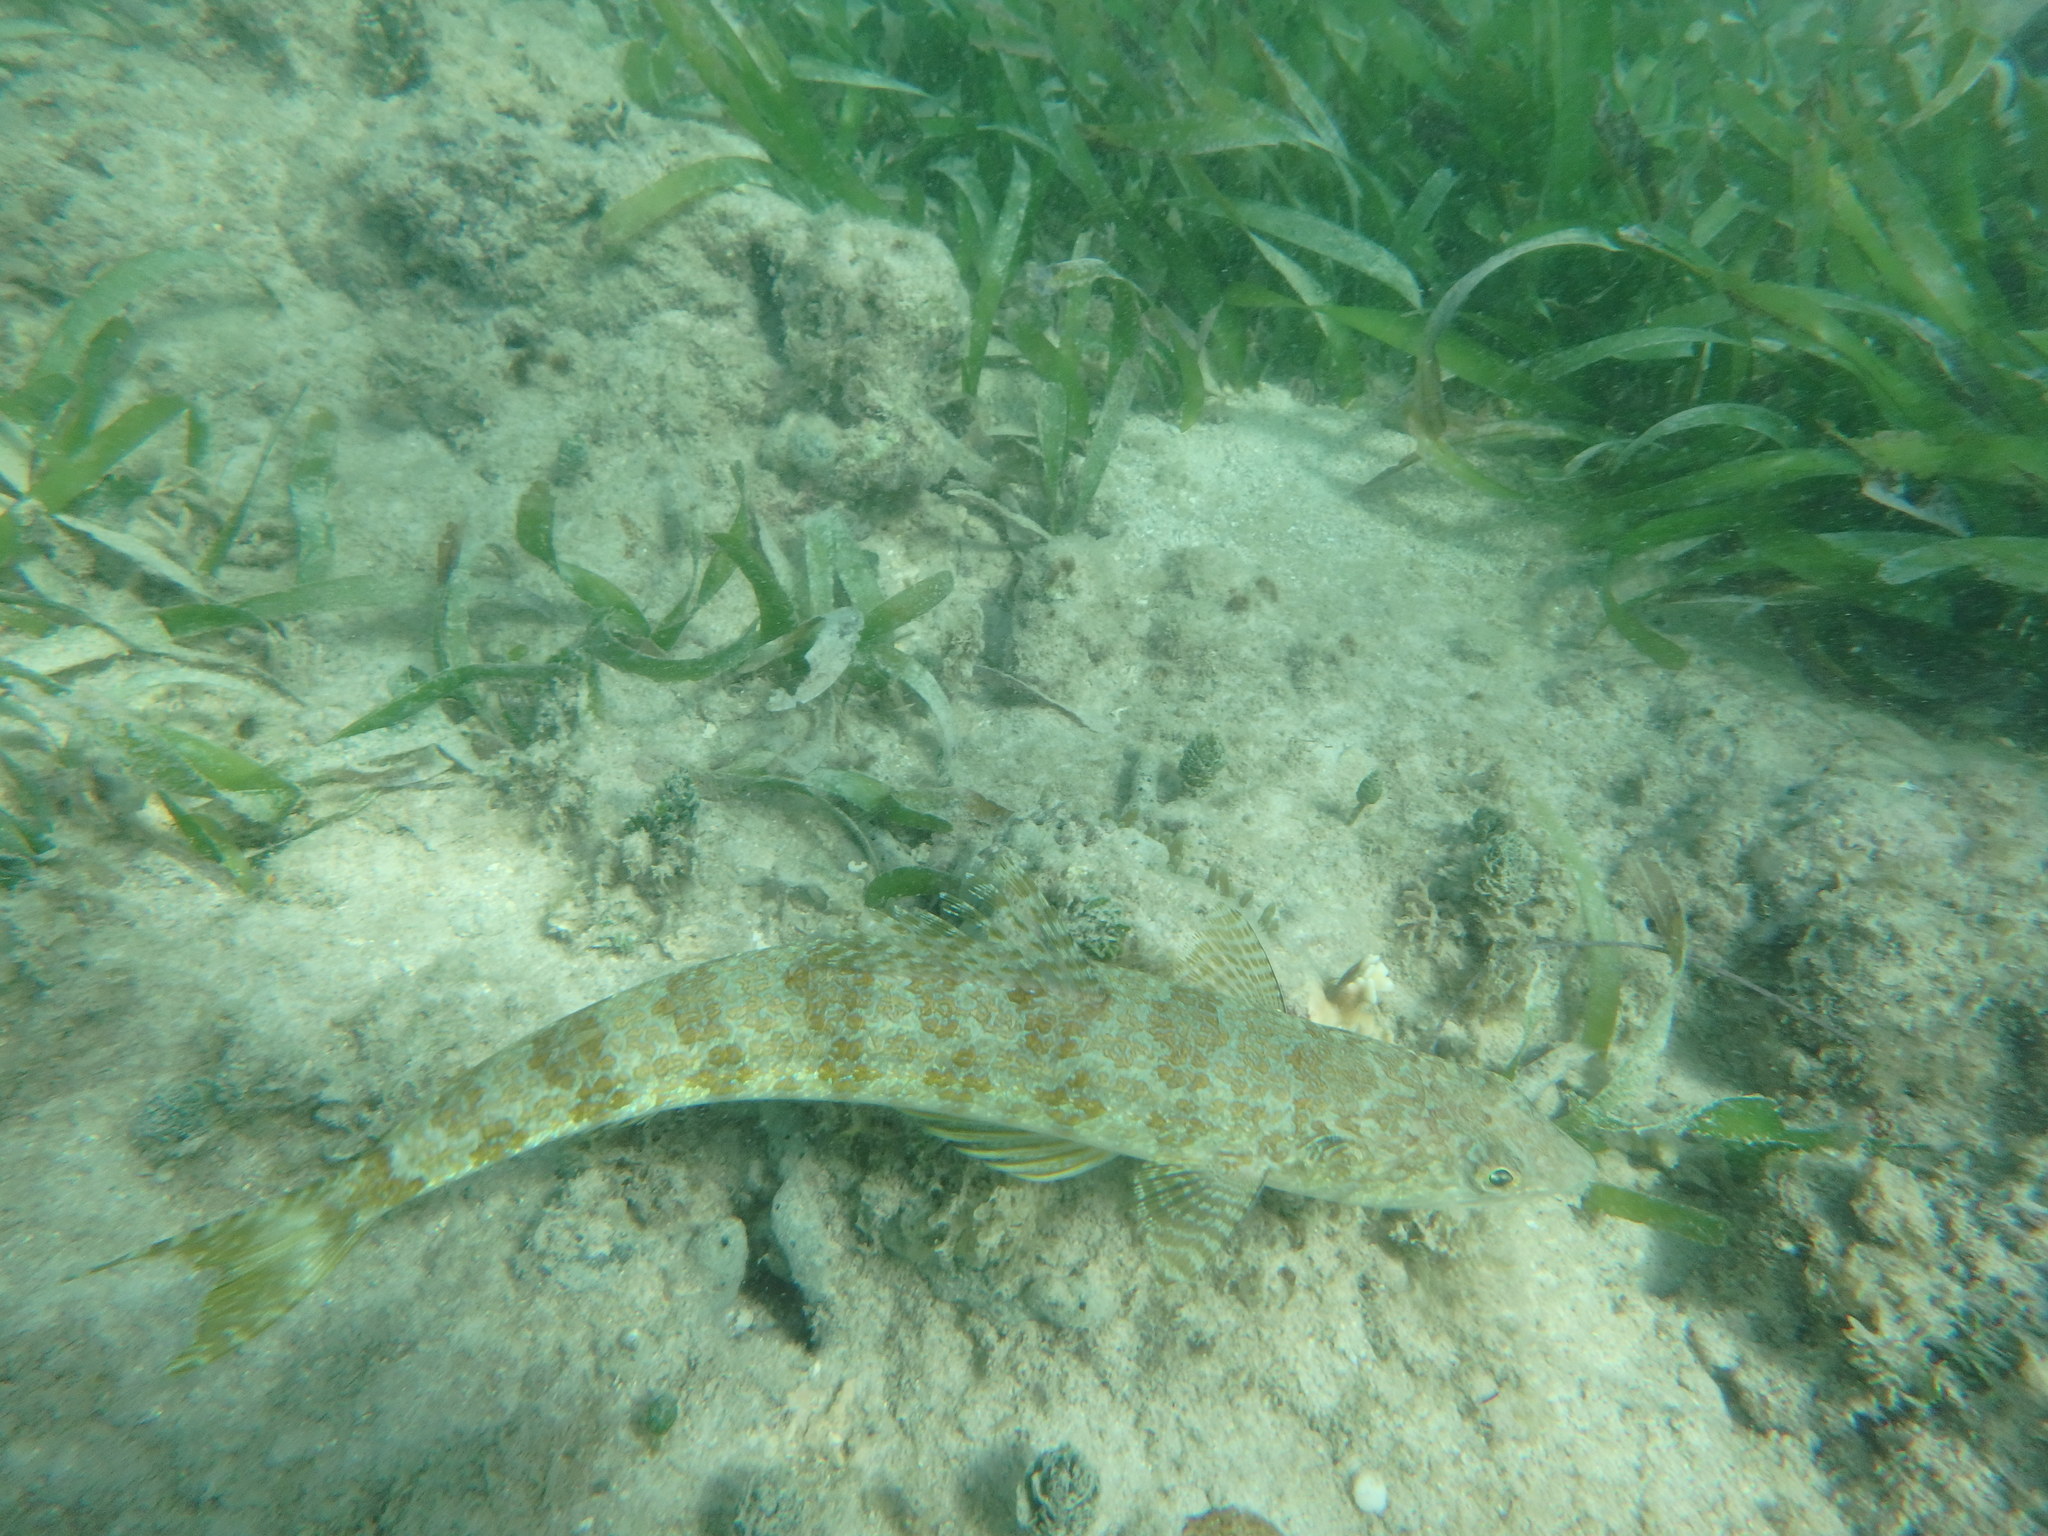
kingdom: Animalia
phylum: Chordata
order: Aulopiformes
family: Synodontidae
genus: Synodus
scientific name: Synodus intermedius
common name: Sand diver
